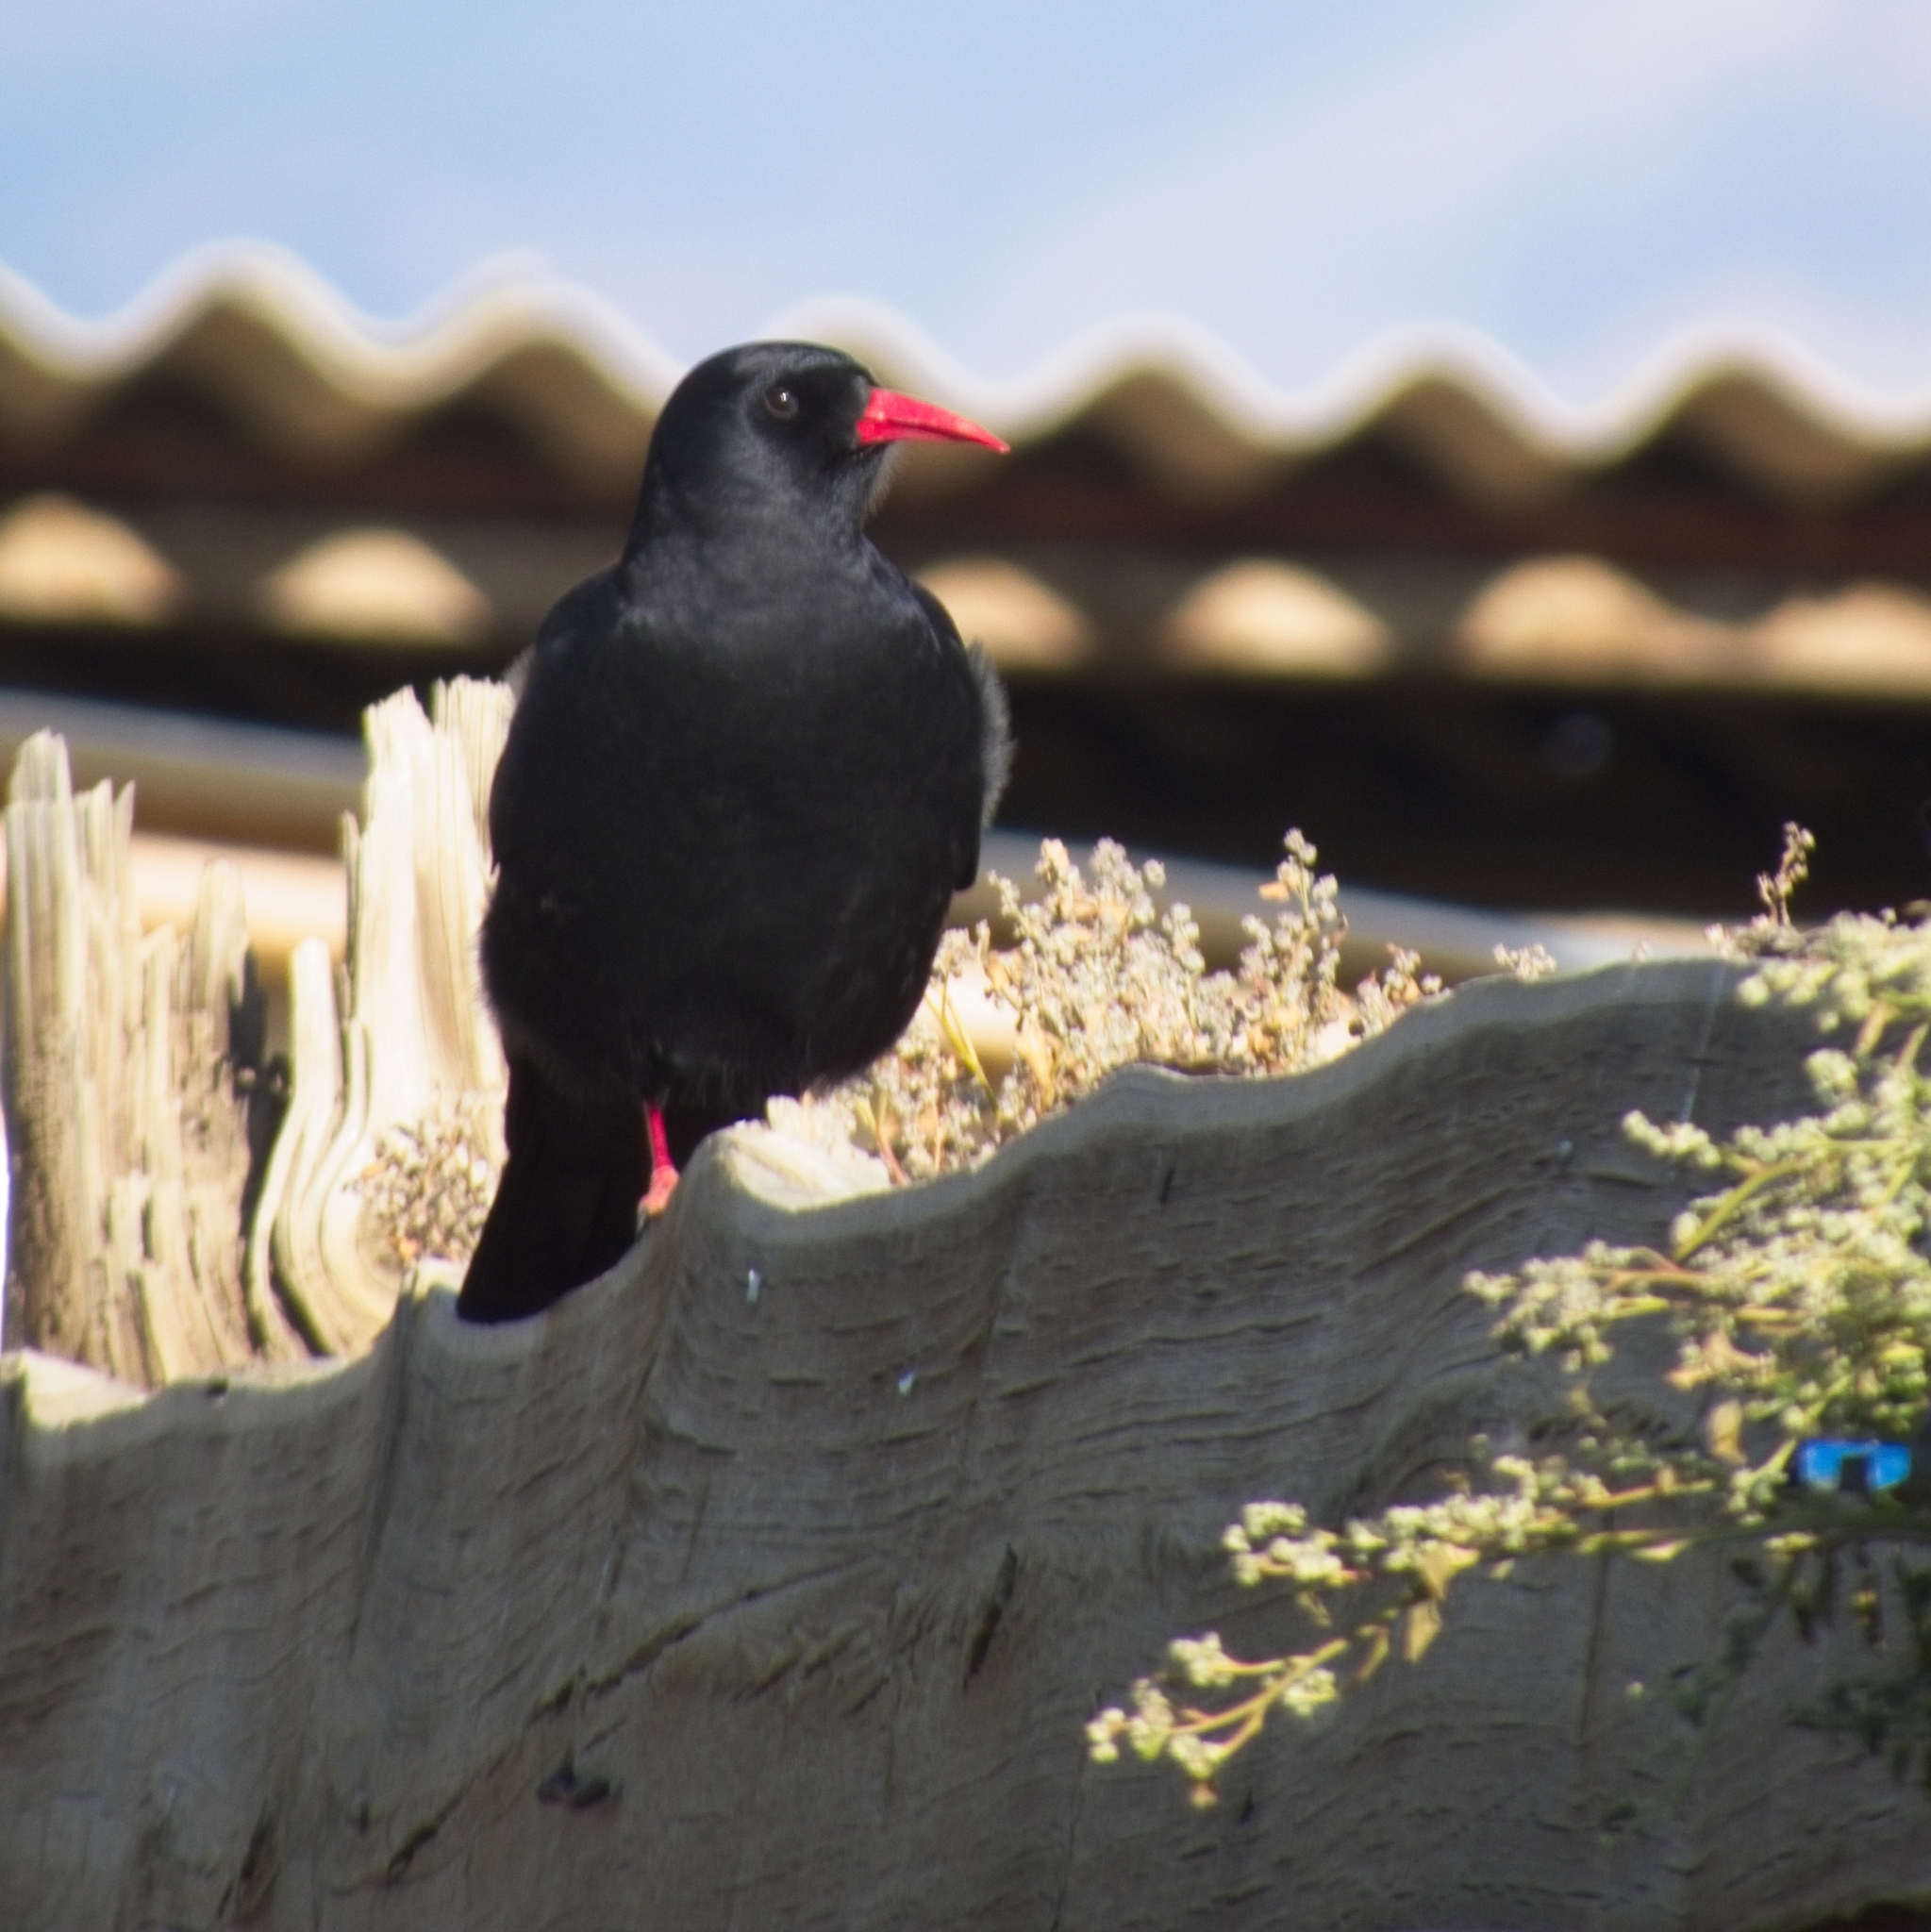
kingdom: Animalia
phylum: Chordata
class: Aves
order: Passeriformes
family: Corvidae
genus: Pyrrhocorax
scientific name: Pyrrhocorax pyrrhocorax
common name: Red-billed chough
